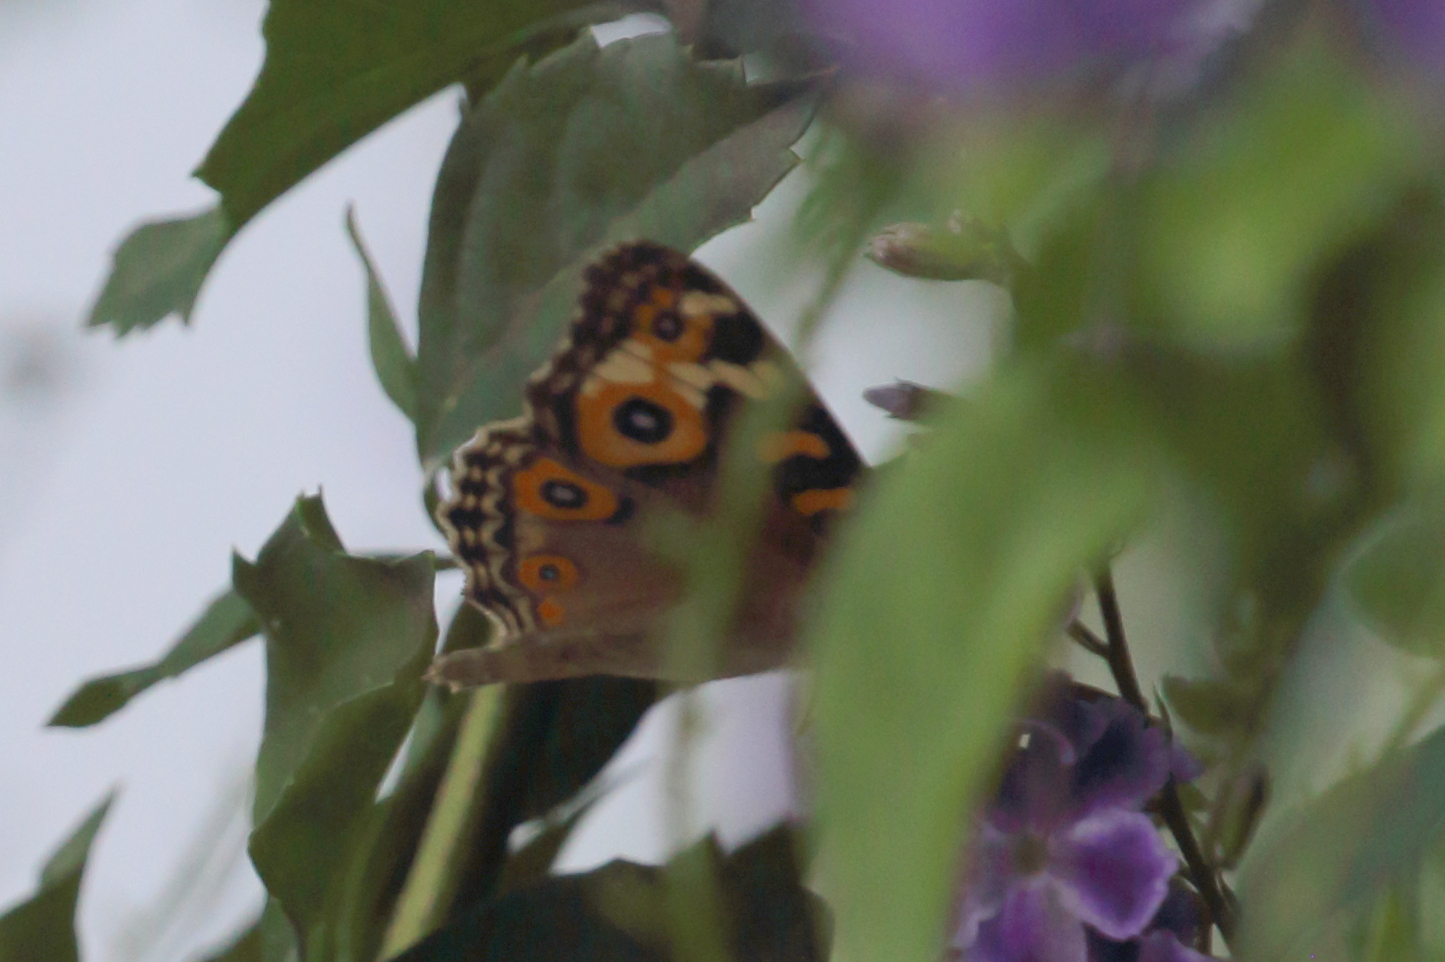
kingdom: Animalia
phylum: Arthropoda
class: Insecta
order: Lepidoptera
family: Nymphalidae
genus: Junonia
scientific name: Junonia villida
